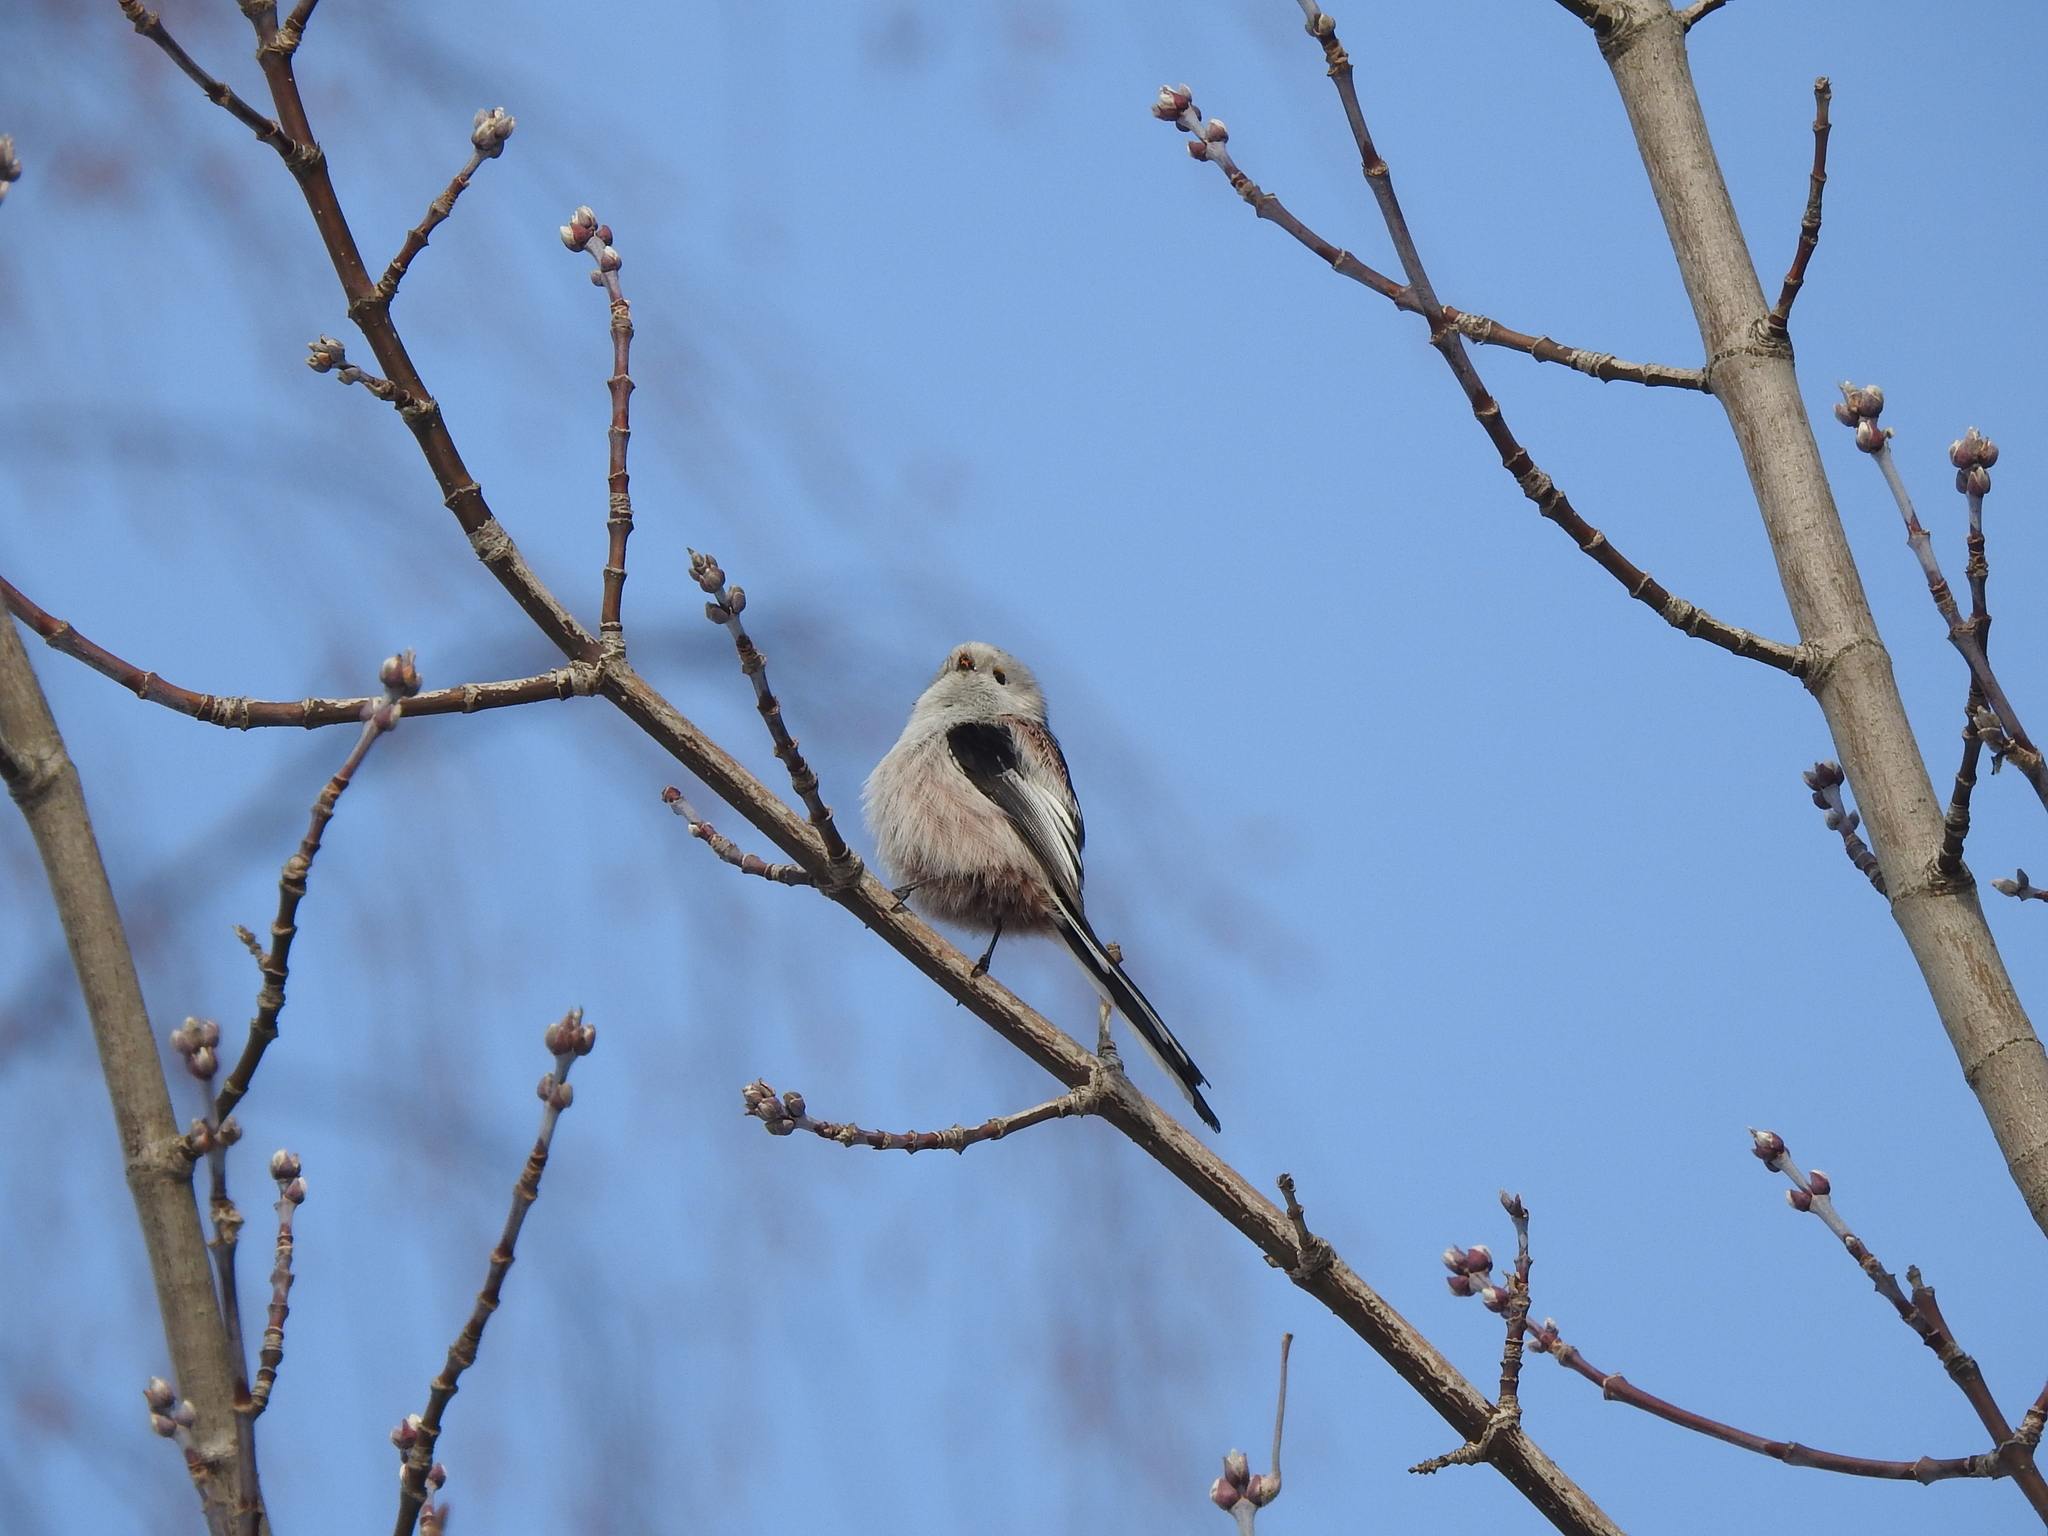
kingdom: Animalia
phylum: Chordata
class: Aves
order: Passeriformes
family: Aegithalidae
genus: Aegithalos
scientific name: Aegithalos caudatus
